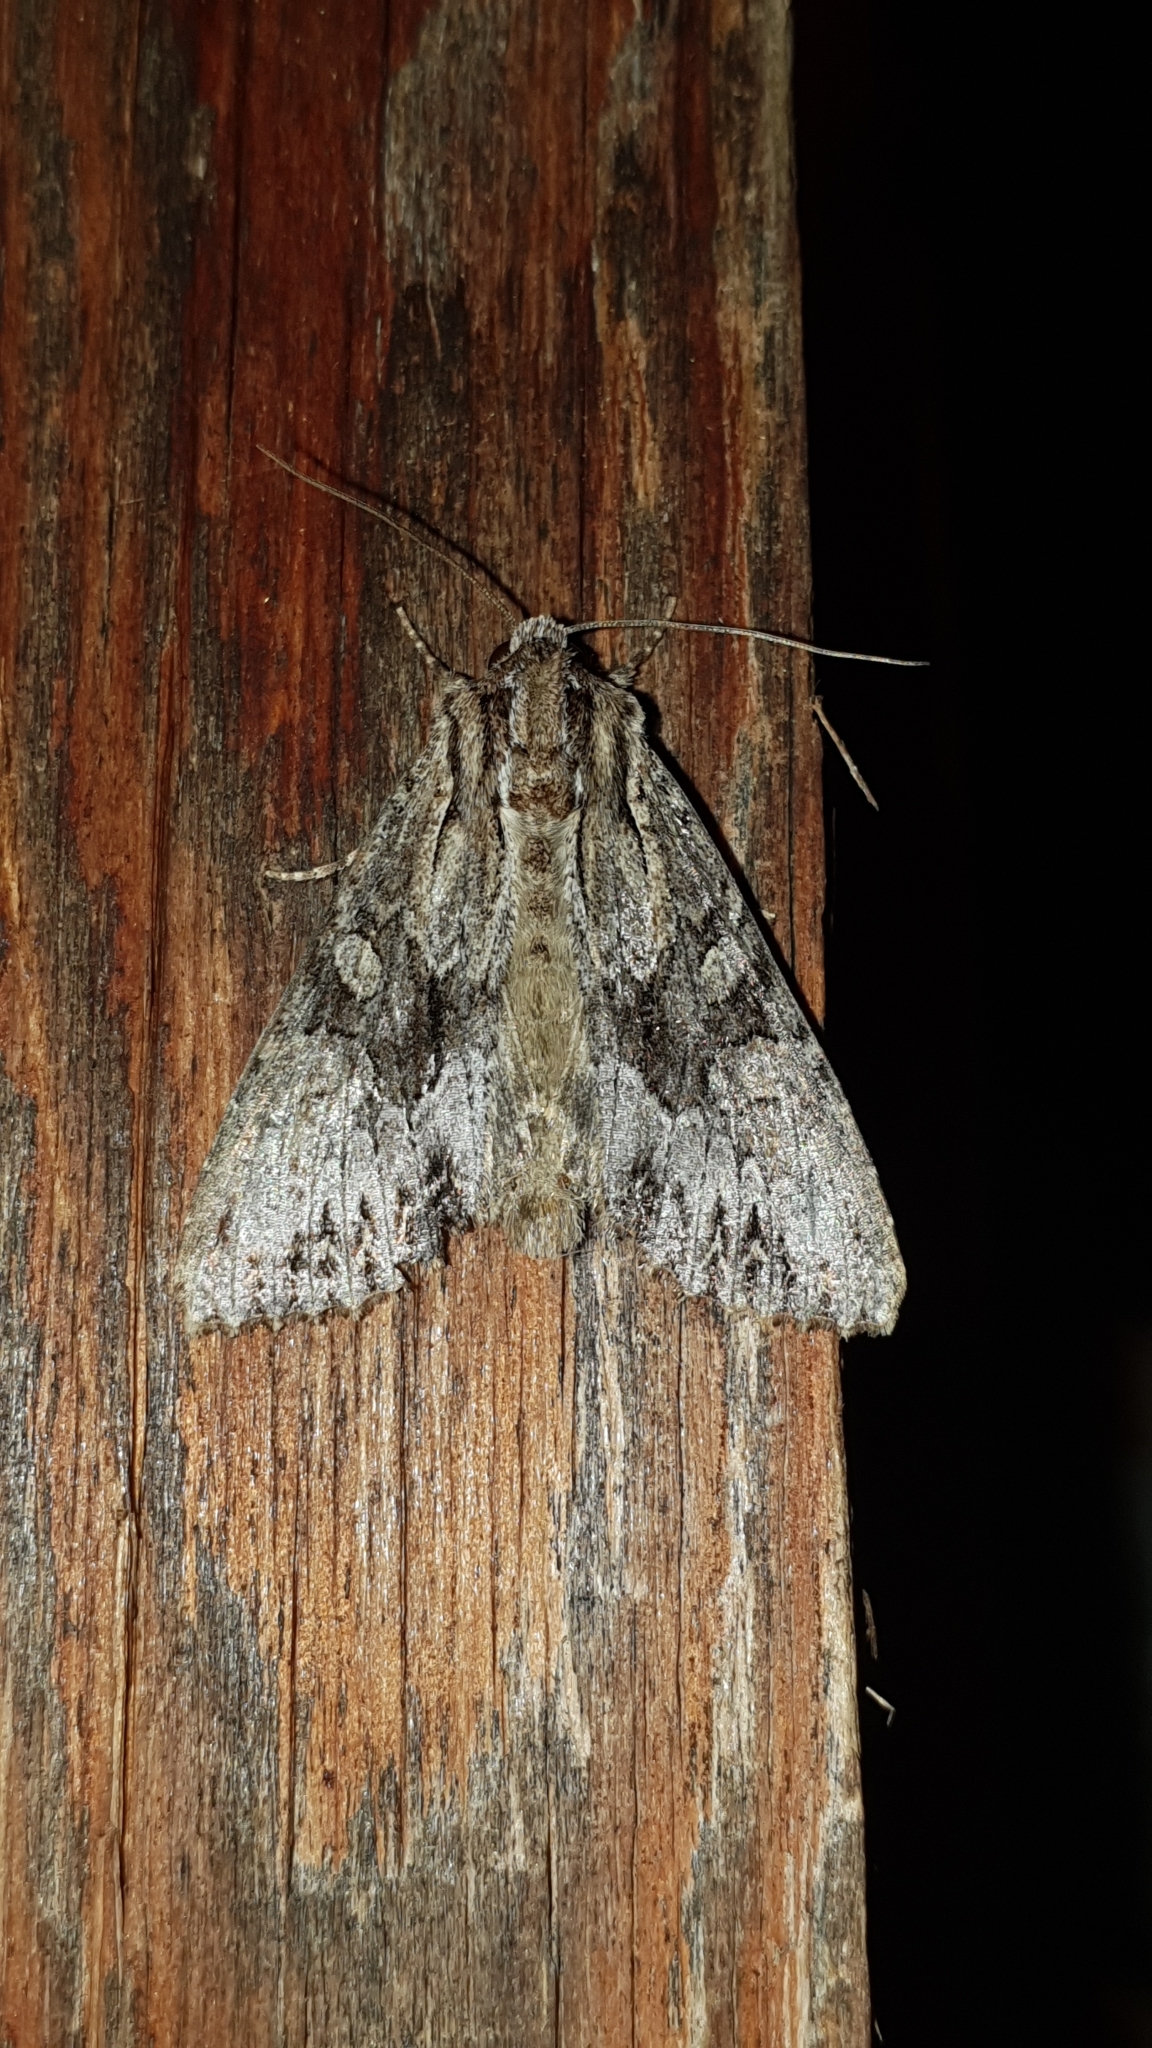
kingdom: Animalia
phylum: Arthropoda
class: Insecta
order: Lepidoptera
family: Noctuidae
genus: Apamea
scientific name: Apamea monoglypha
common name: Dark arches
